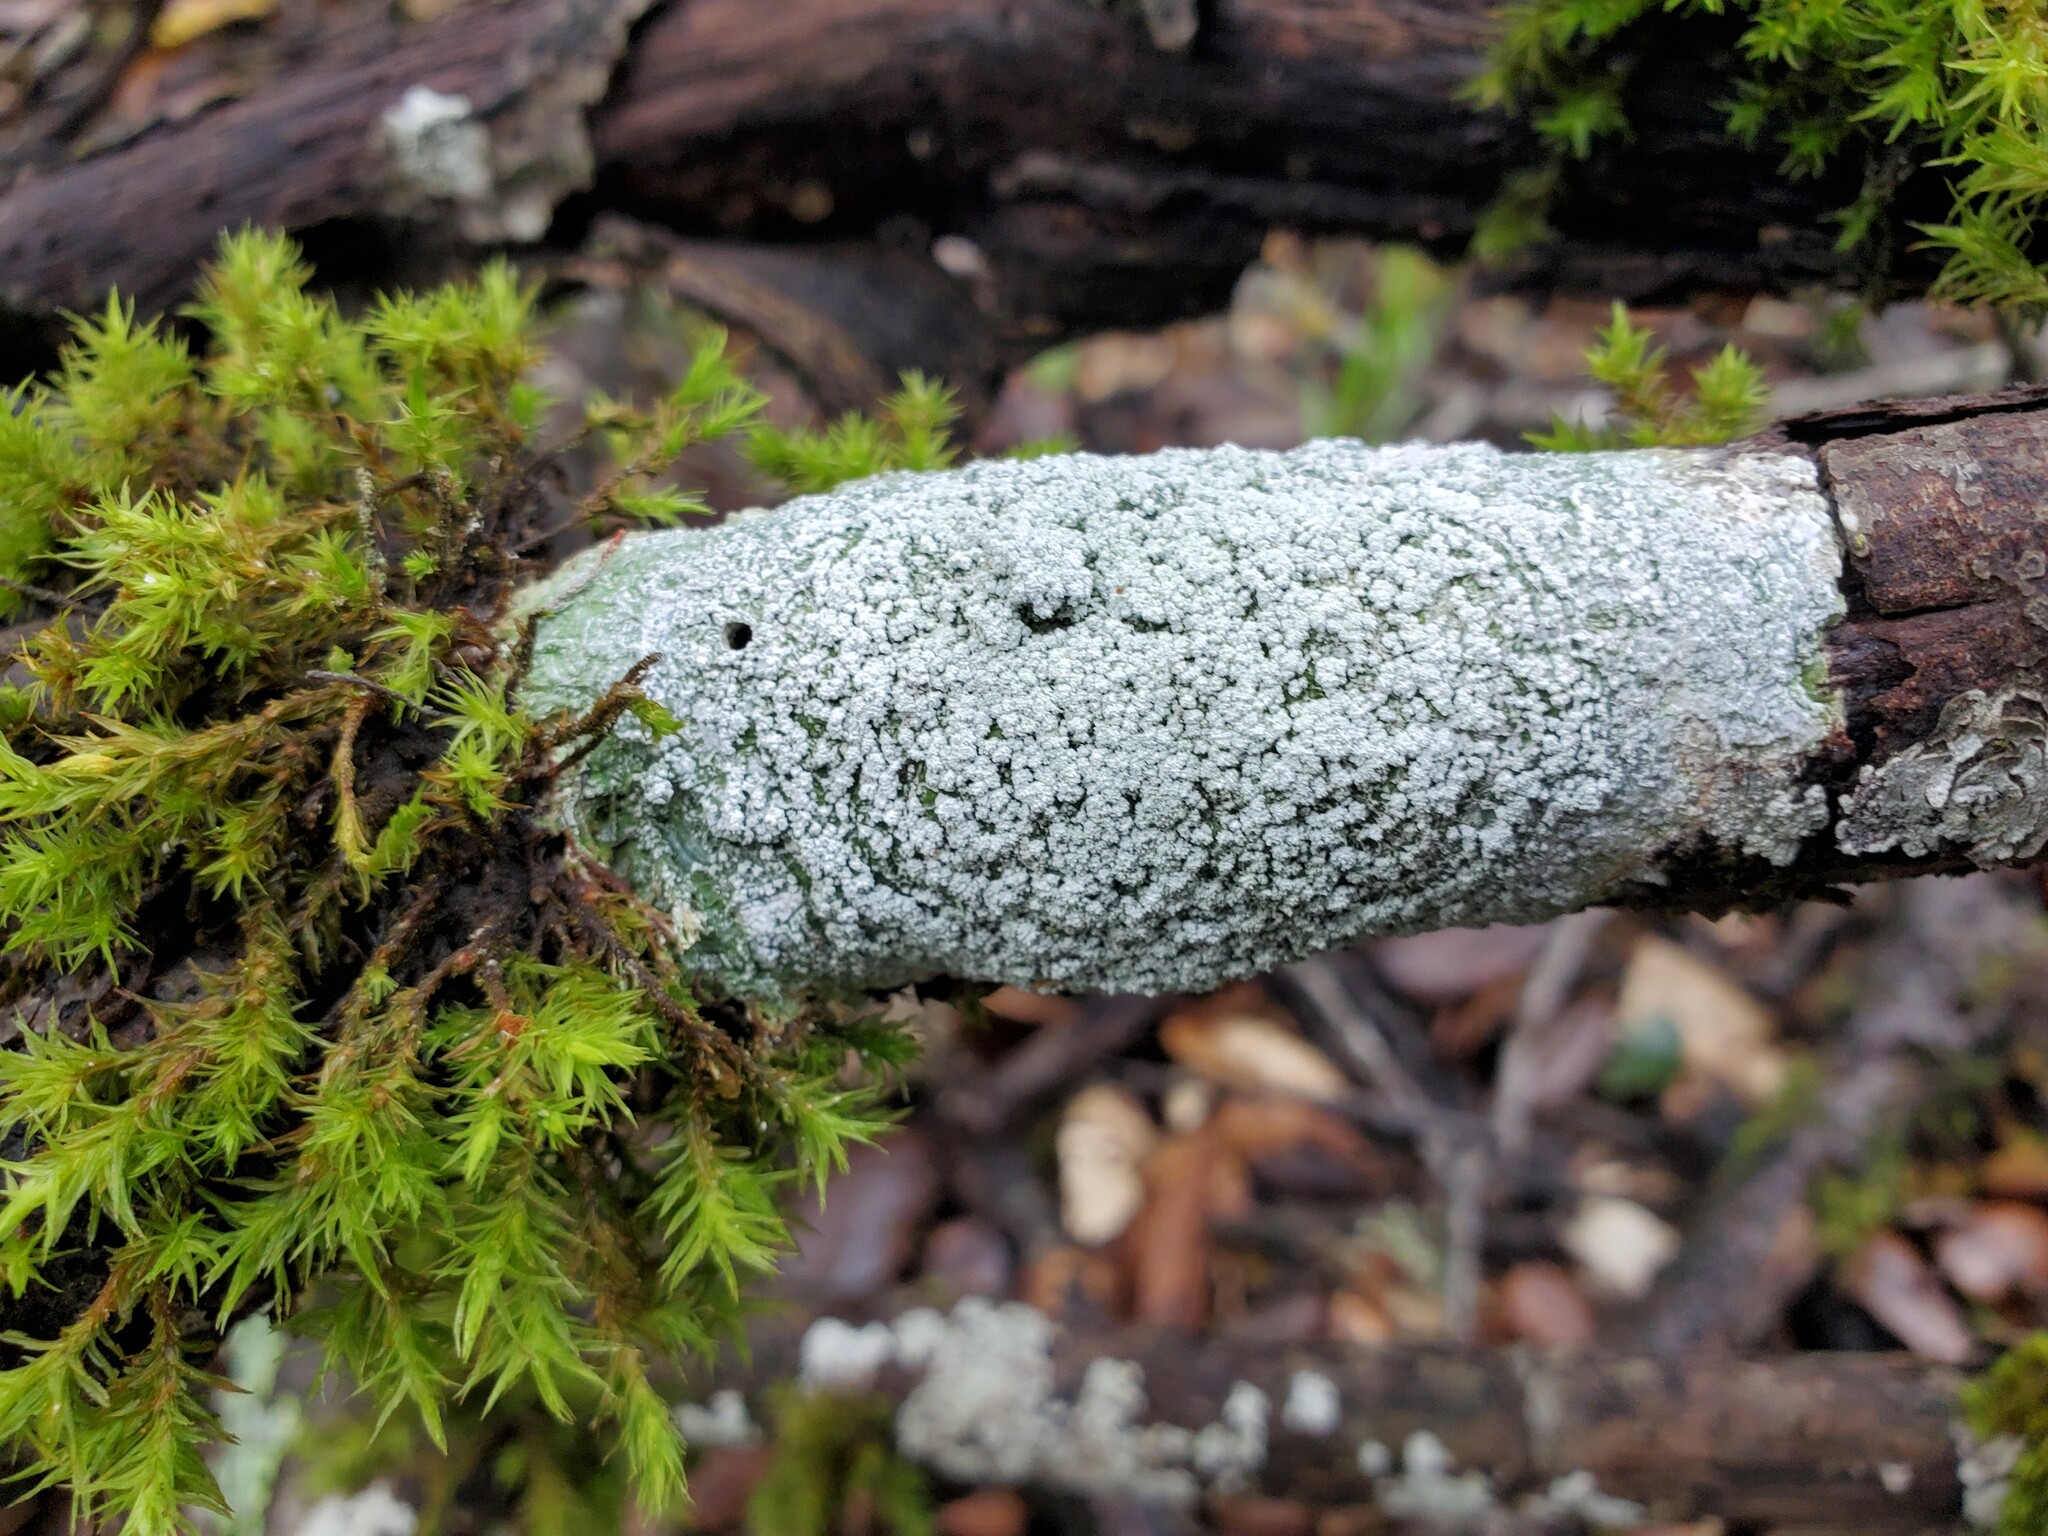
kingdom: Fungi
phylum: Ascomycota
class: Lecanoromycetes
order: Pertusariales
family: Pertusariaceae
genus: Lepra
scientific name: Lepra amara
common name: Bitter wart lichen
